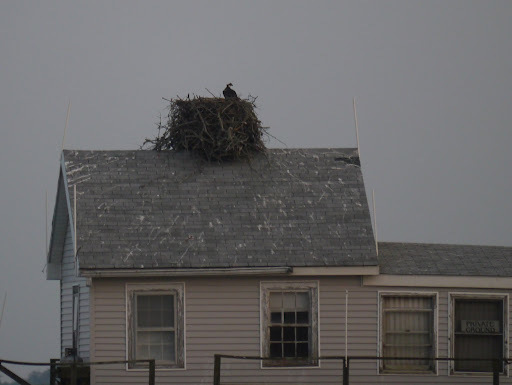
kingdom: Animalia
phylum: Chordata
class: Aves
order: Accipitriformes
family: Pandionidae
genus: Pandion
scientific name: Pandion haliaetus
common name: Osprey
